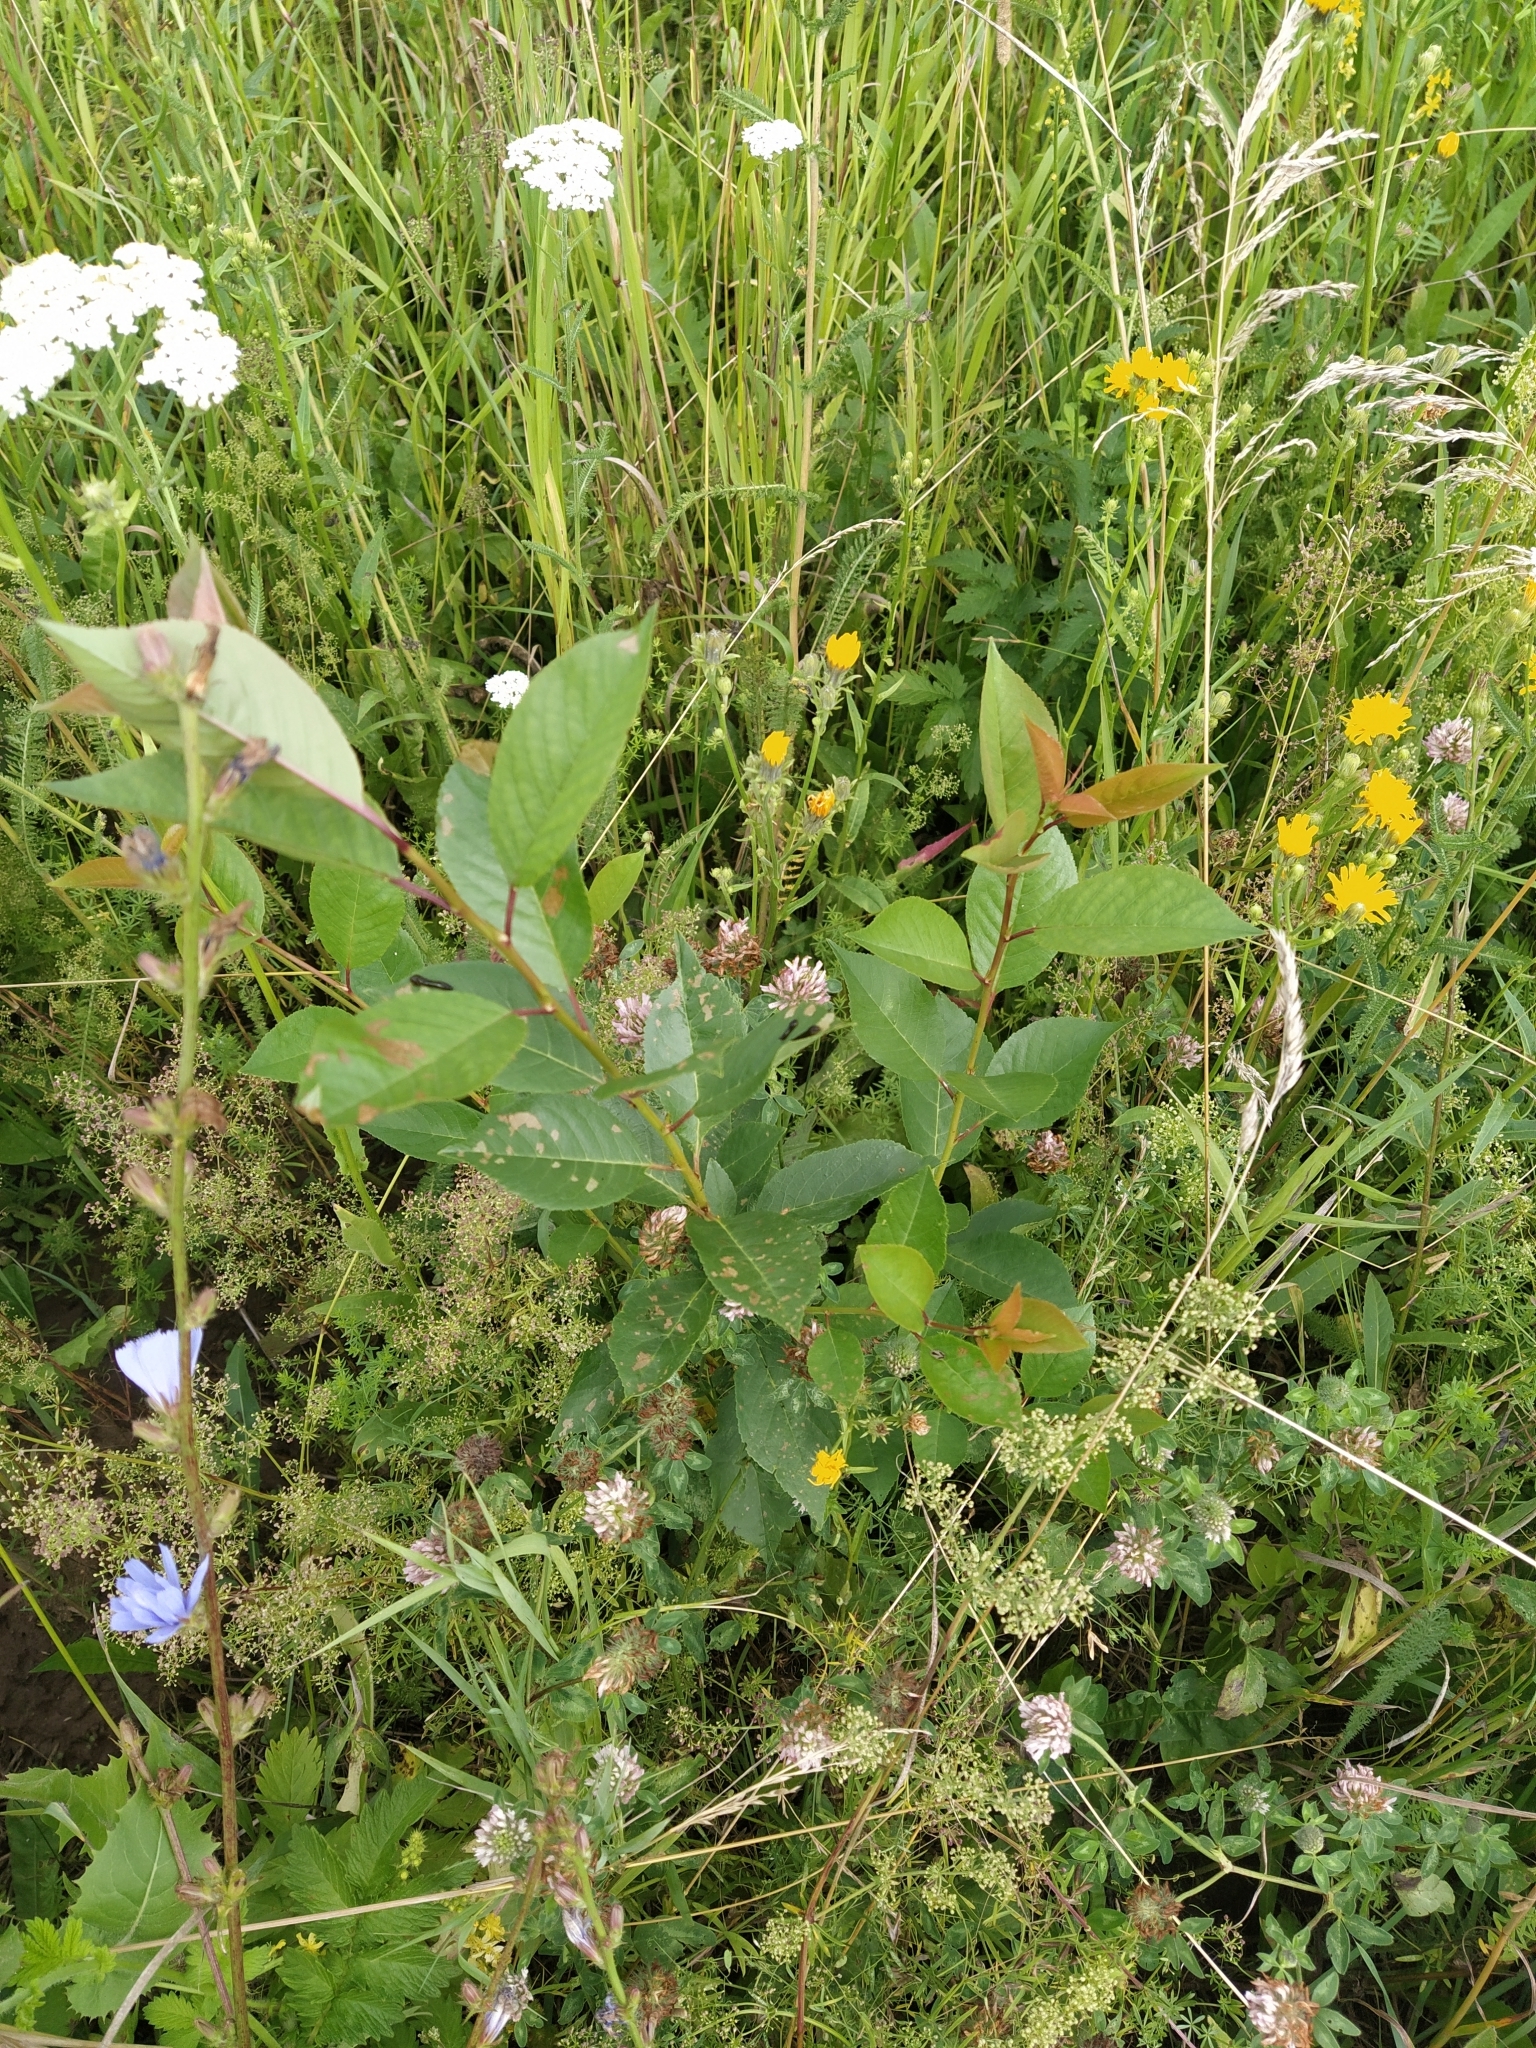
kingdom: Plantae
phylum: Tracheophyta
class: Magnoliopsida
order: Rosales
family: Rosaceae
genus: Prunus
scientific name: Prunus cerasus
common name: Morello cherry
